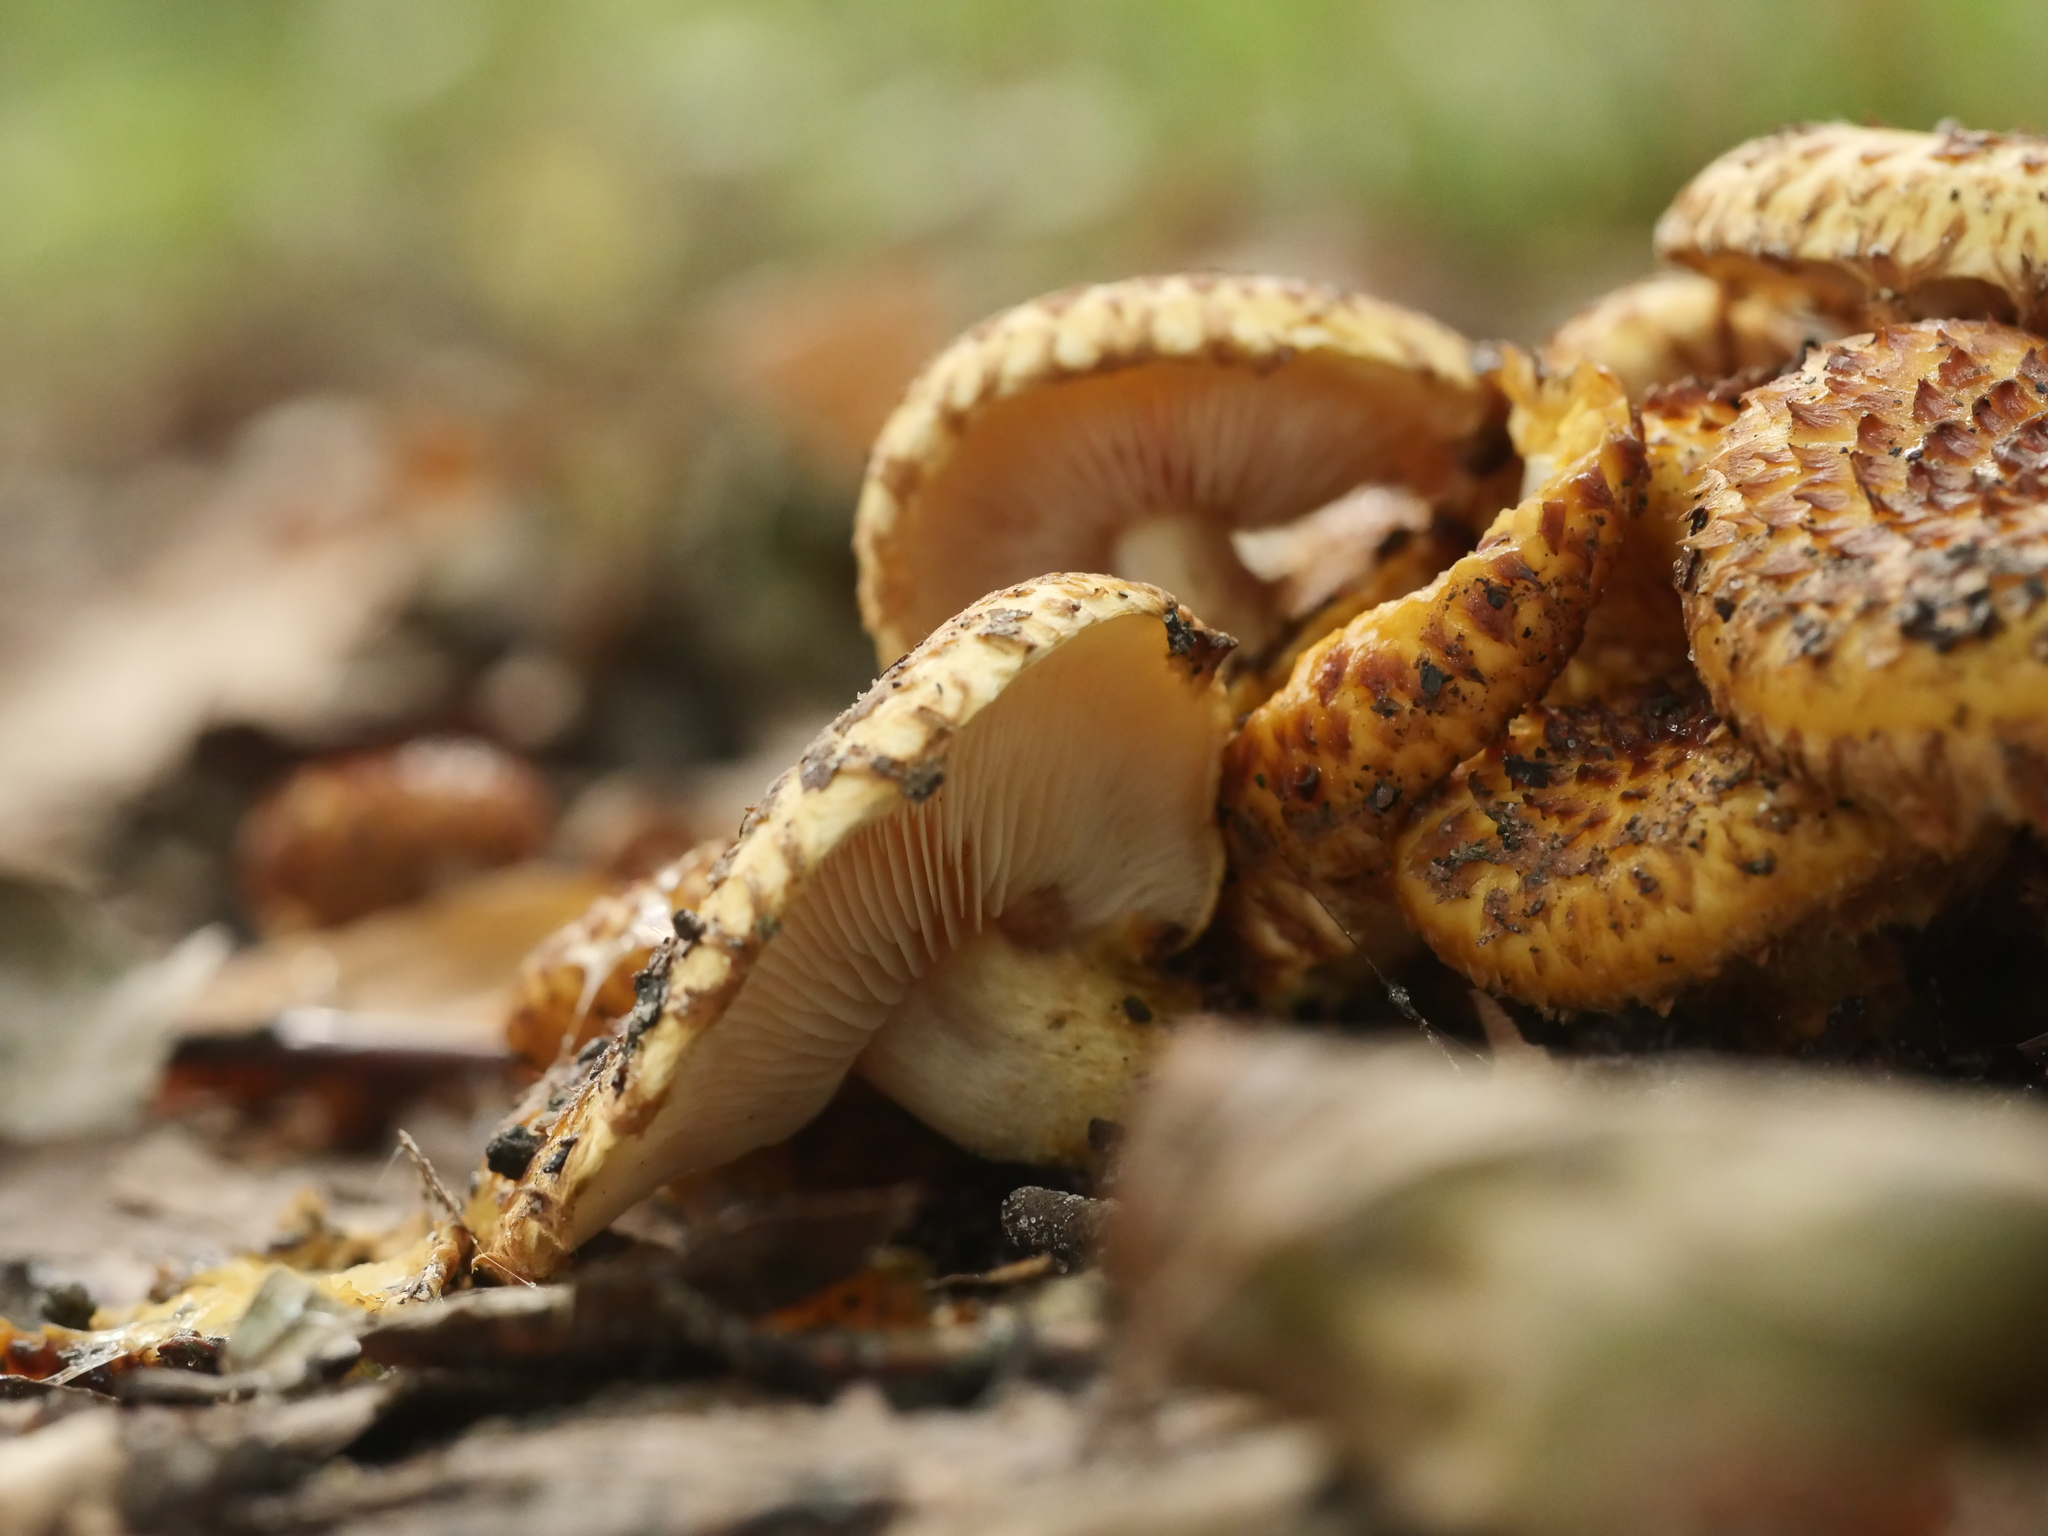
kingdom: Fungi
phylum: Basidiomycota
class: Agaricomycetes
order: Agaricales
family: Strophariaceae
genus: Pholiota
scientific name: Pholiota squarrosa
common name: Shaggy pholiota
